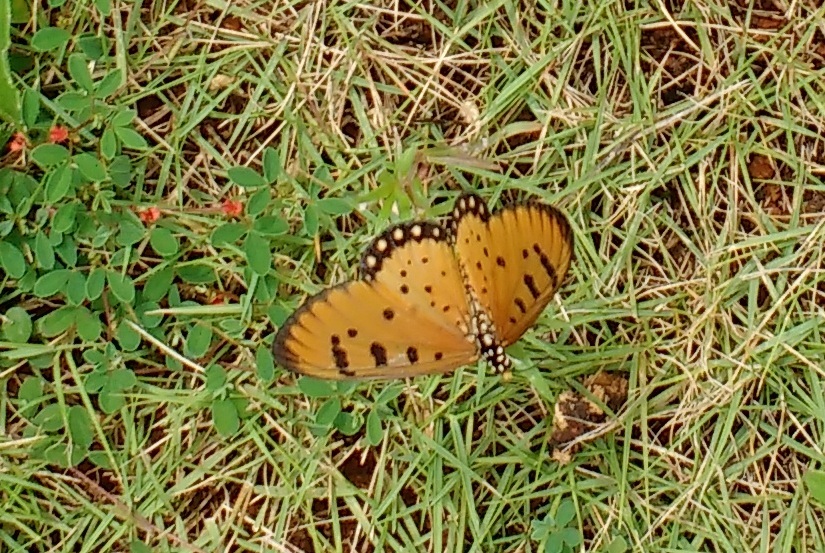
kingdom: Animalia
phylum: Arthropoda
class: Insecta
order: Lepidoptera
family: Nymphalidae
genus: Acraea
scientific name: Acraea terpsicore
